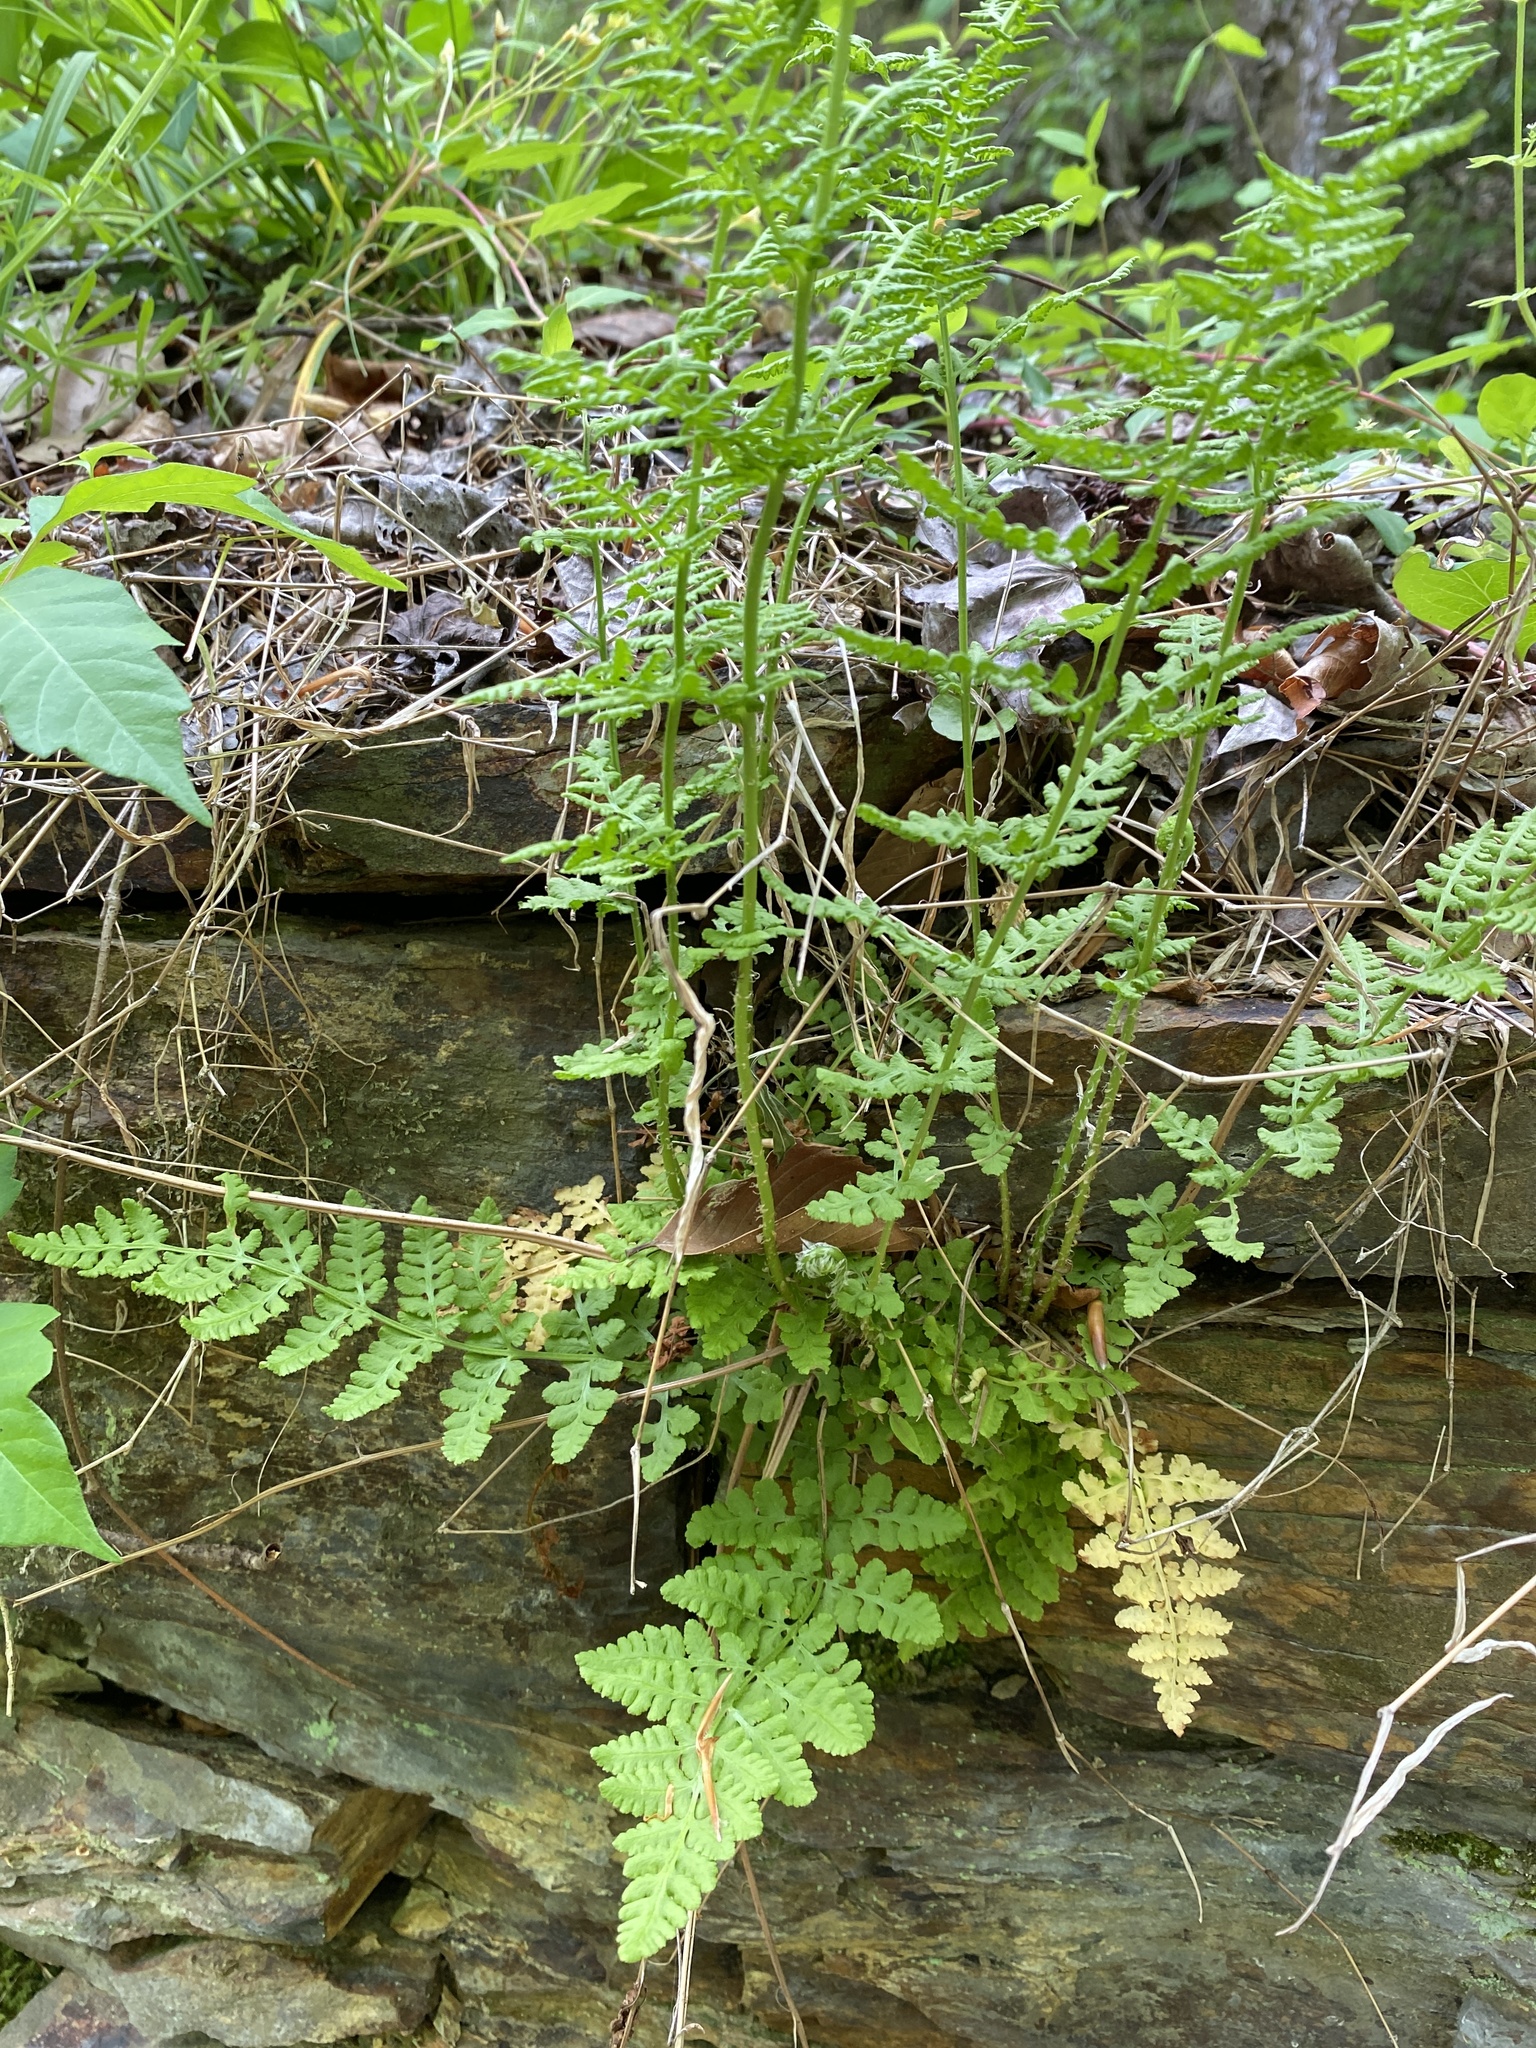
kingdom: Plantae
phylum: Tracheophyta
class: Polypodiopsida
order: Polypodiales
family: Woodsiaceae
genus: Physematium
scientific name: Physematium obtusum
